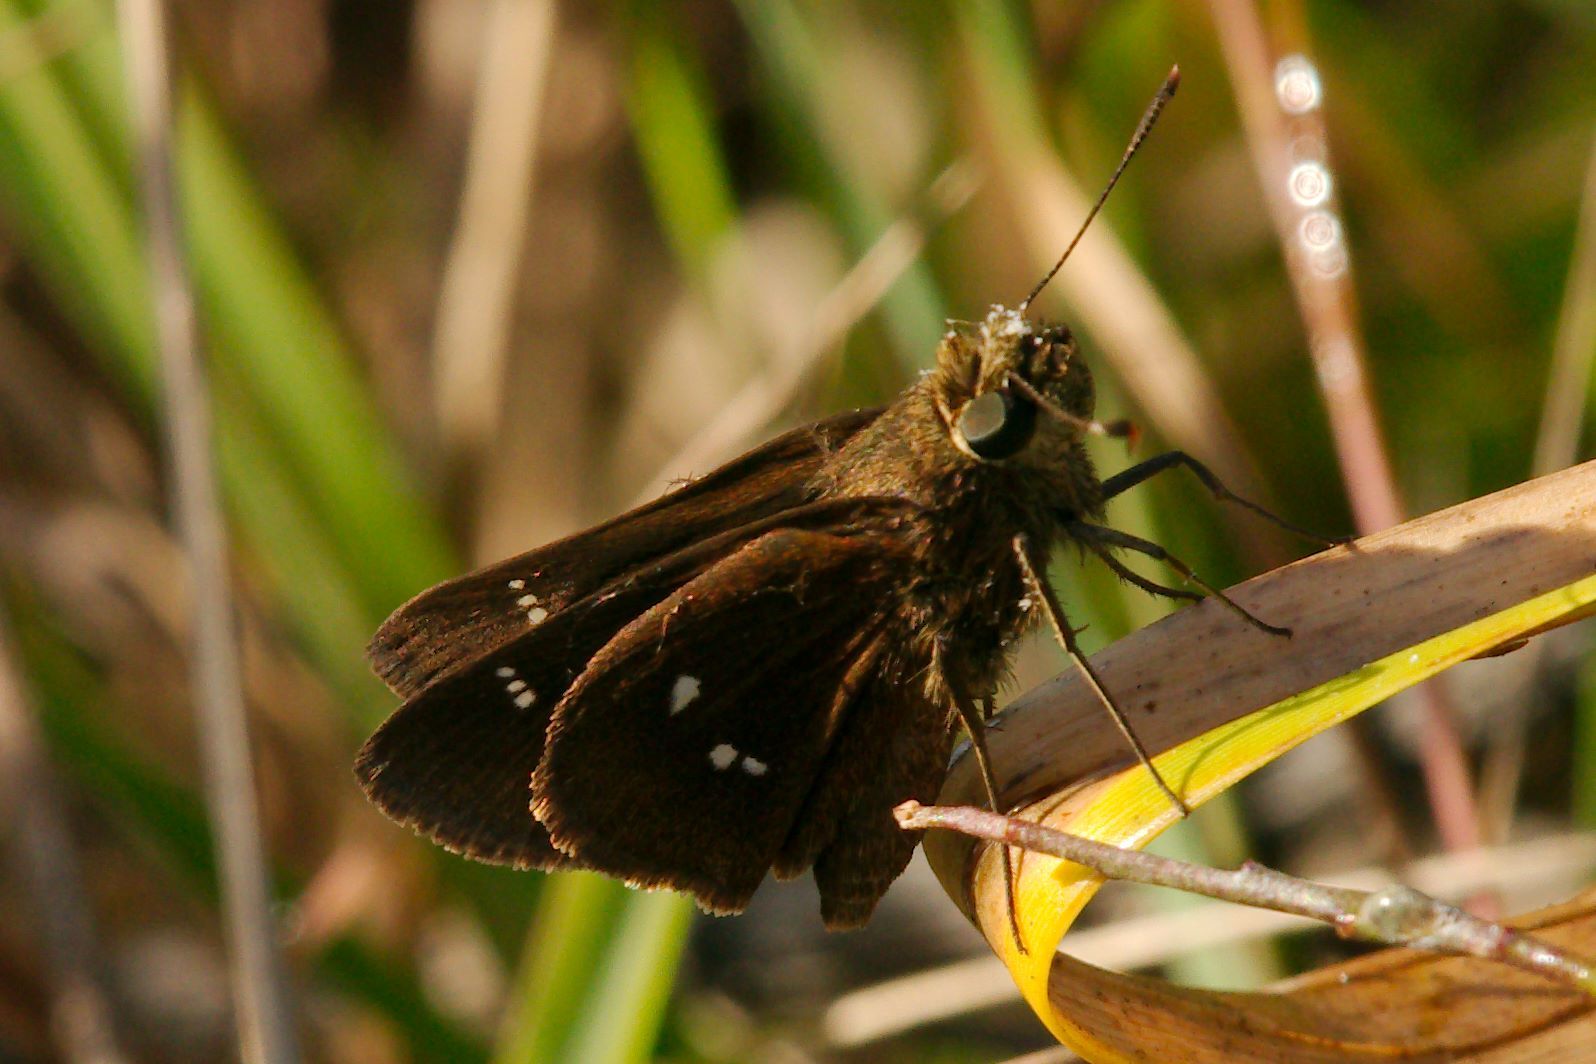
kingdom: Animalia
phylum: Arthropoda
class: Insecta
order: Lepidoptera
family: Hesperiidae
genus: Oligoria
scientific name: Oligoria maculata
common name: Twin-spot skipper
